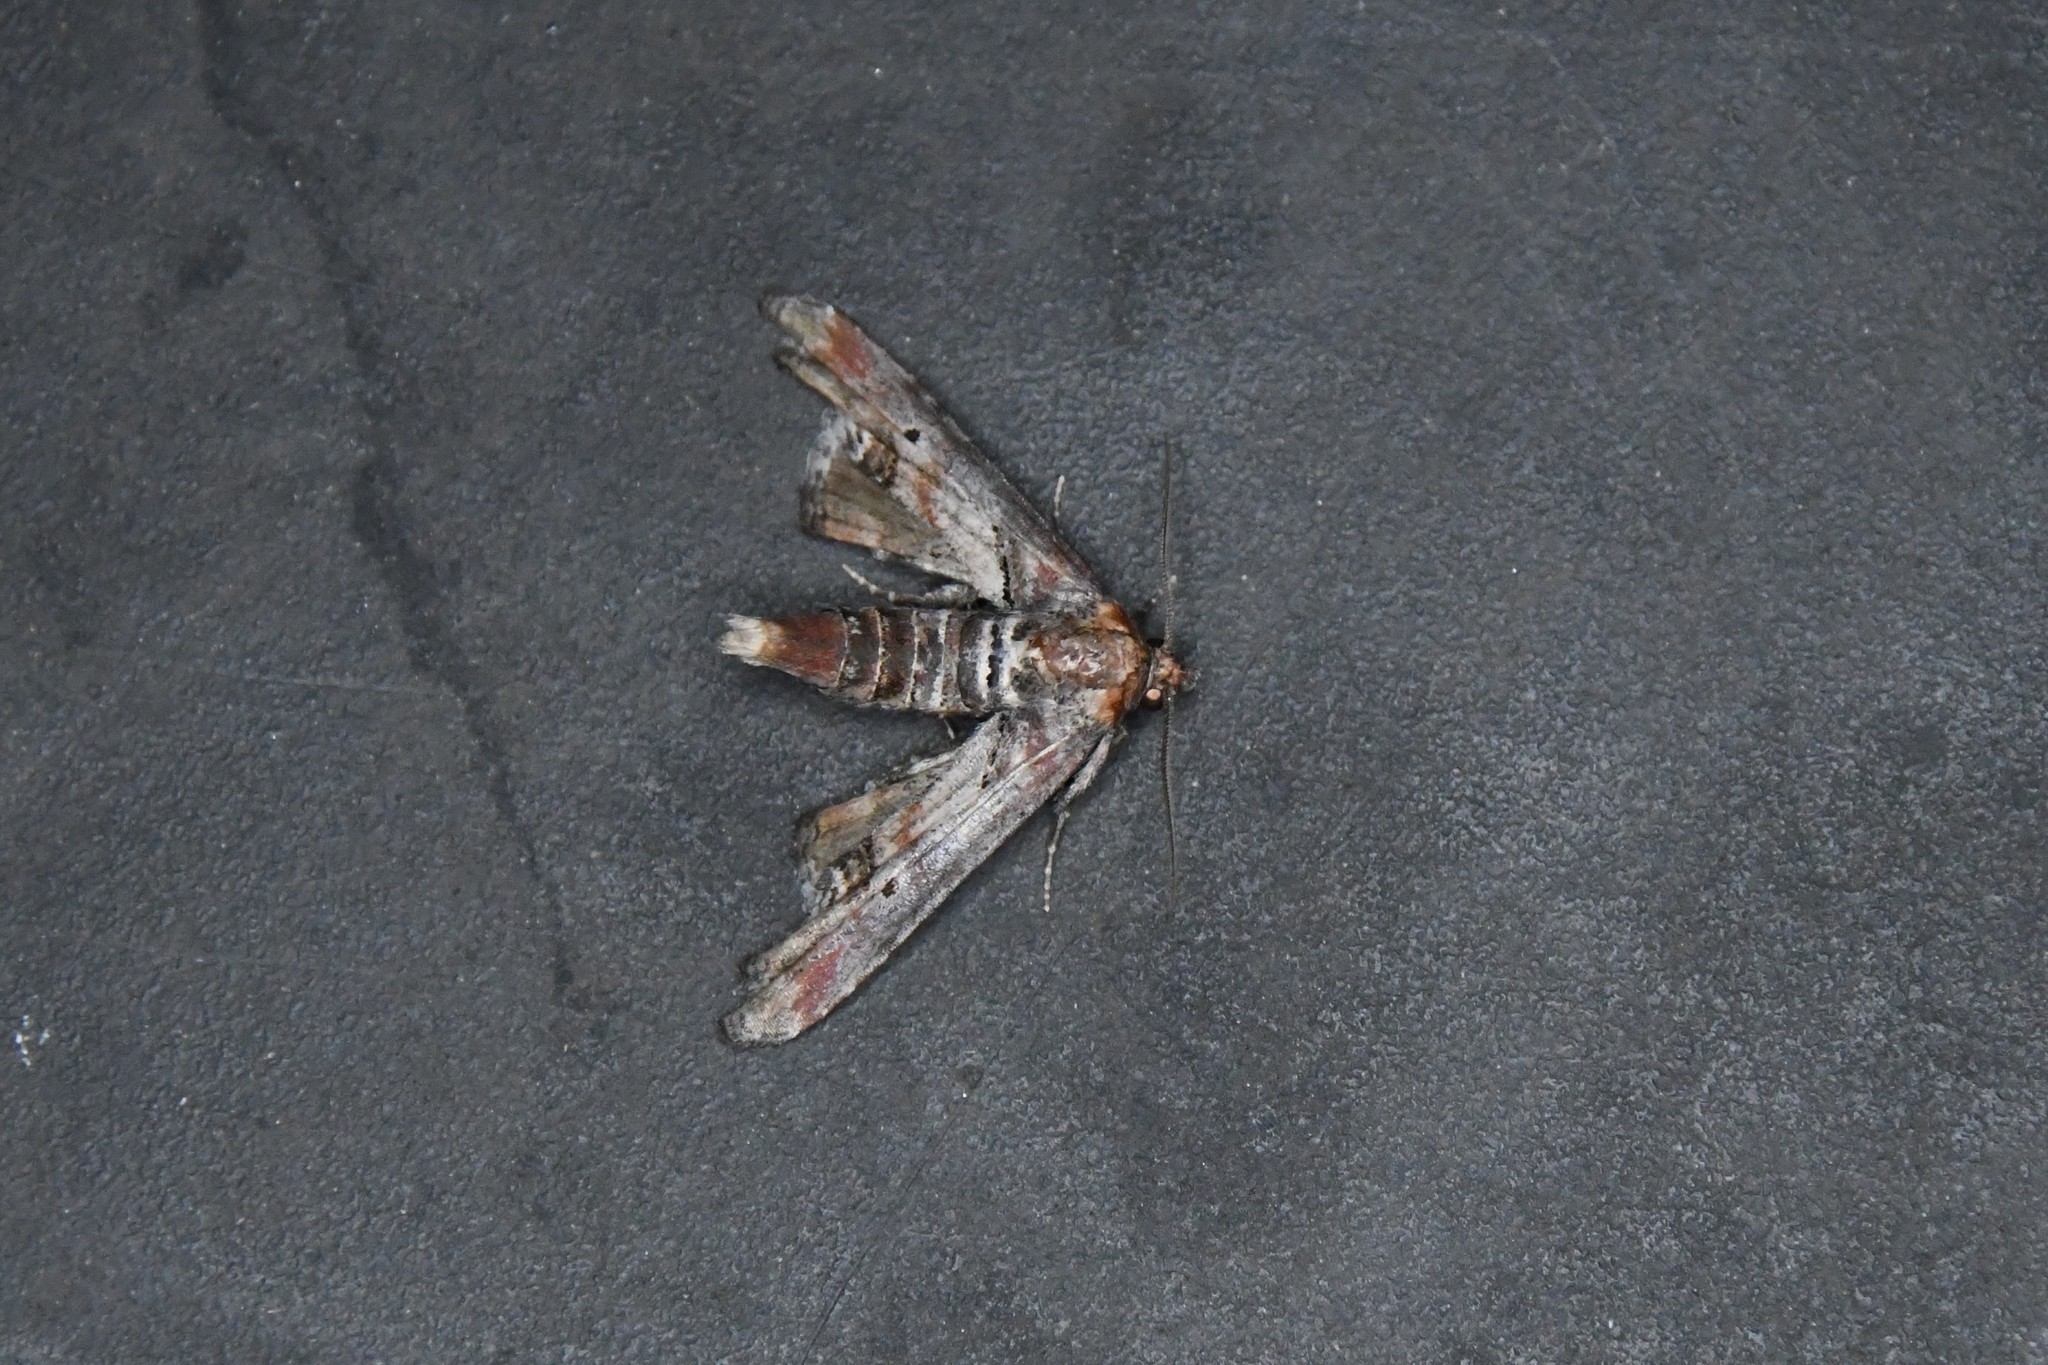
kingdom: Animalia
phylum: Arthropoda
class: Insecta
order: Lepidoptera
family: Euteliidae
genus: Marathyssa
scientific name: Marathyssa inficita
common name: Dark marathyssa moth
